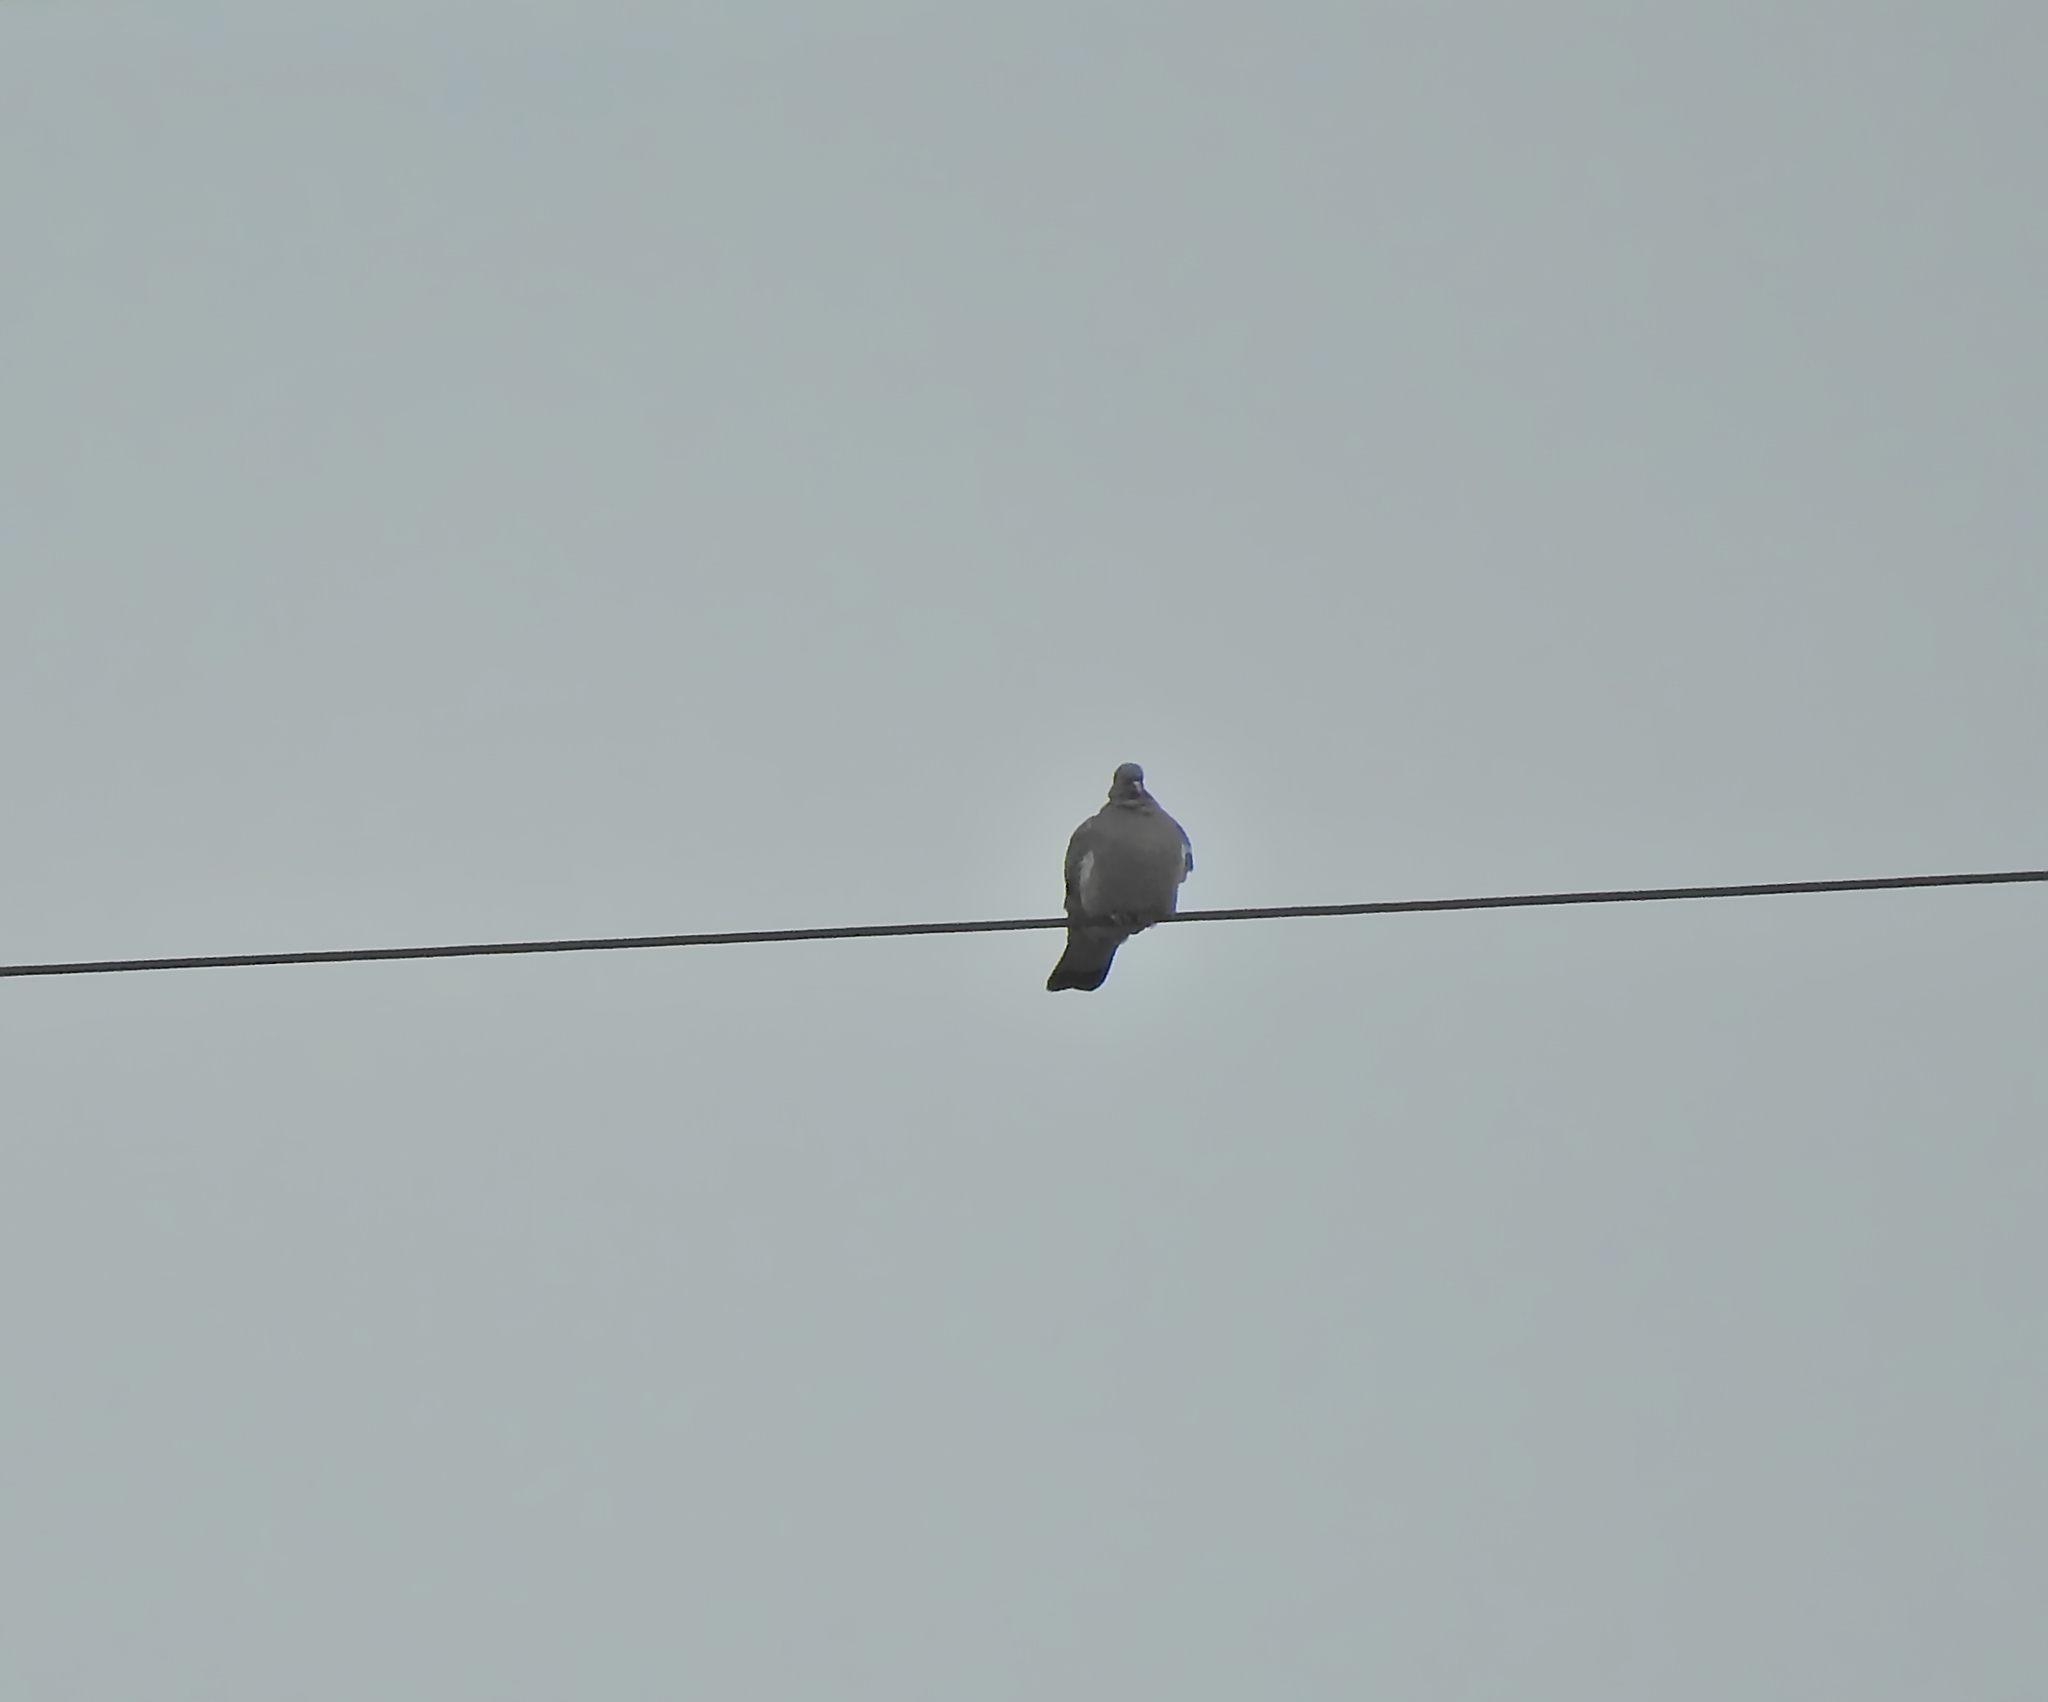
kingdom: Animalia
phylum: Chordata
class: Aves
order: Columbiformes
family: Columbidae
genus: Columba
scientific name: Columba palumbus
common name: Common wood pigeon
